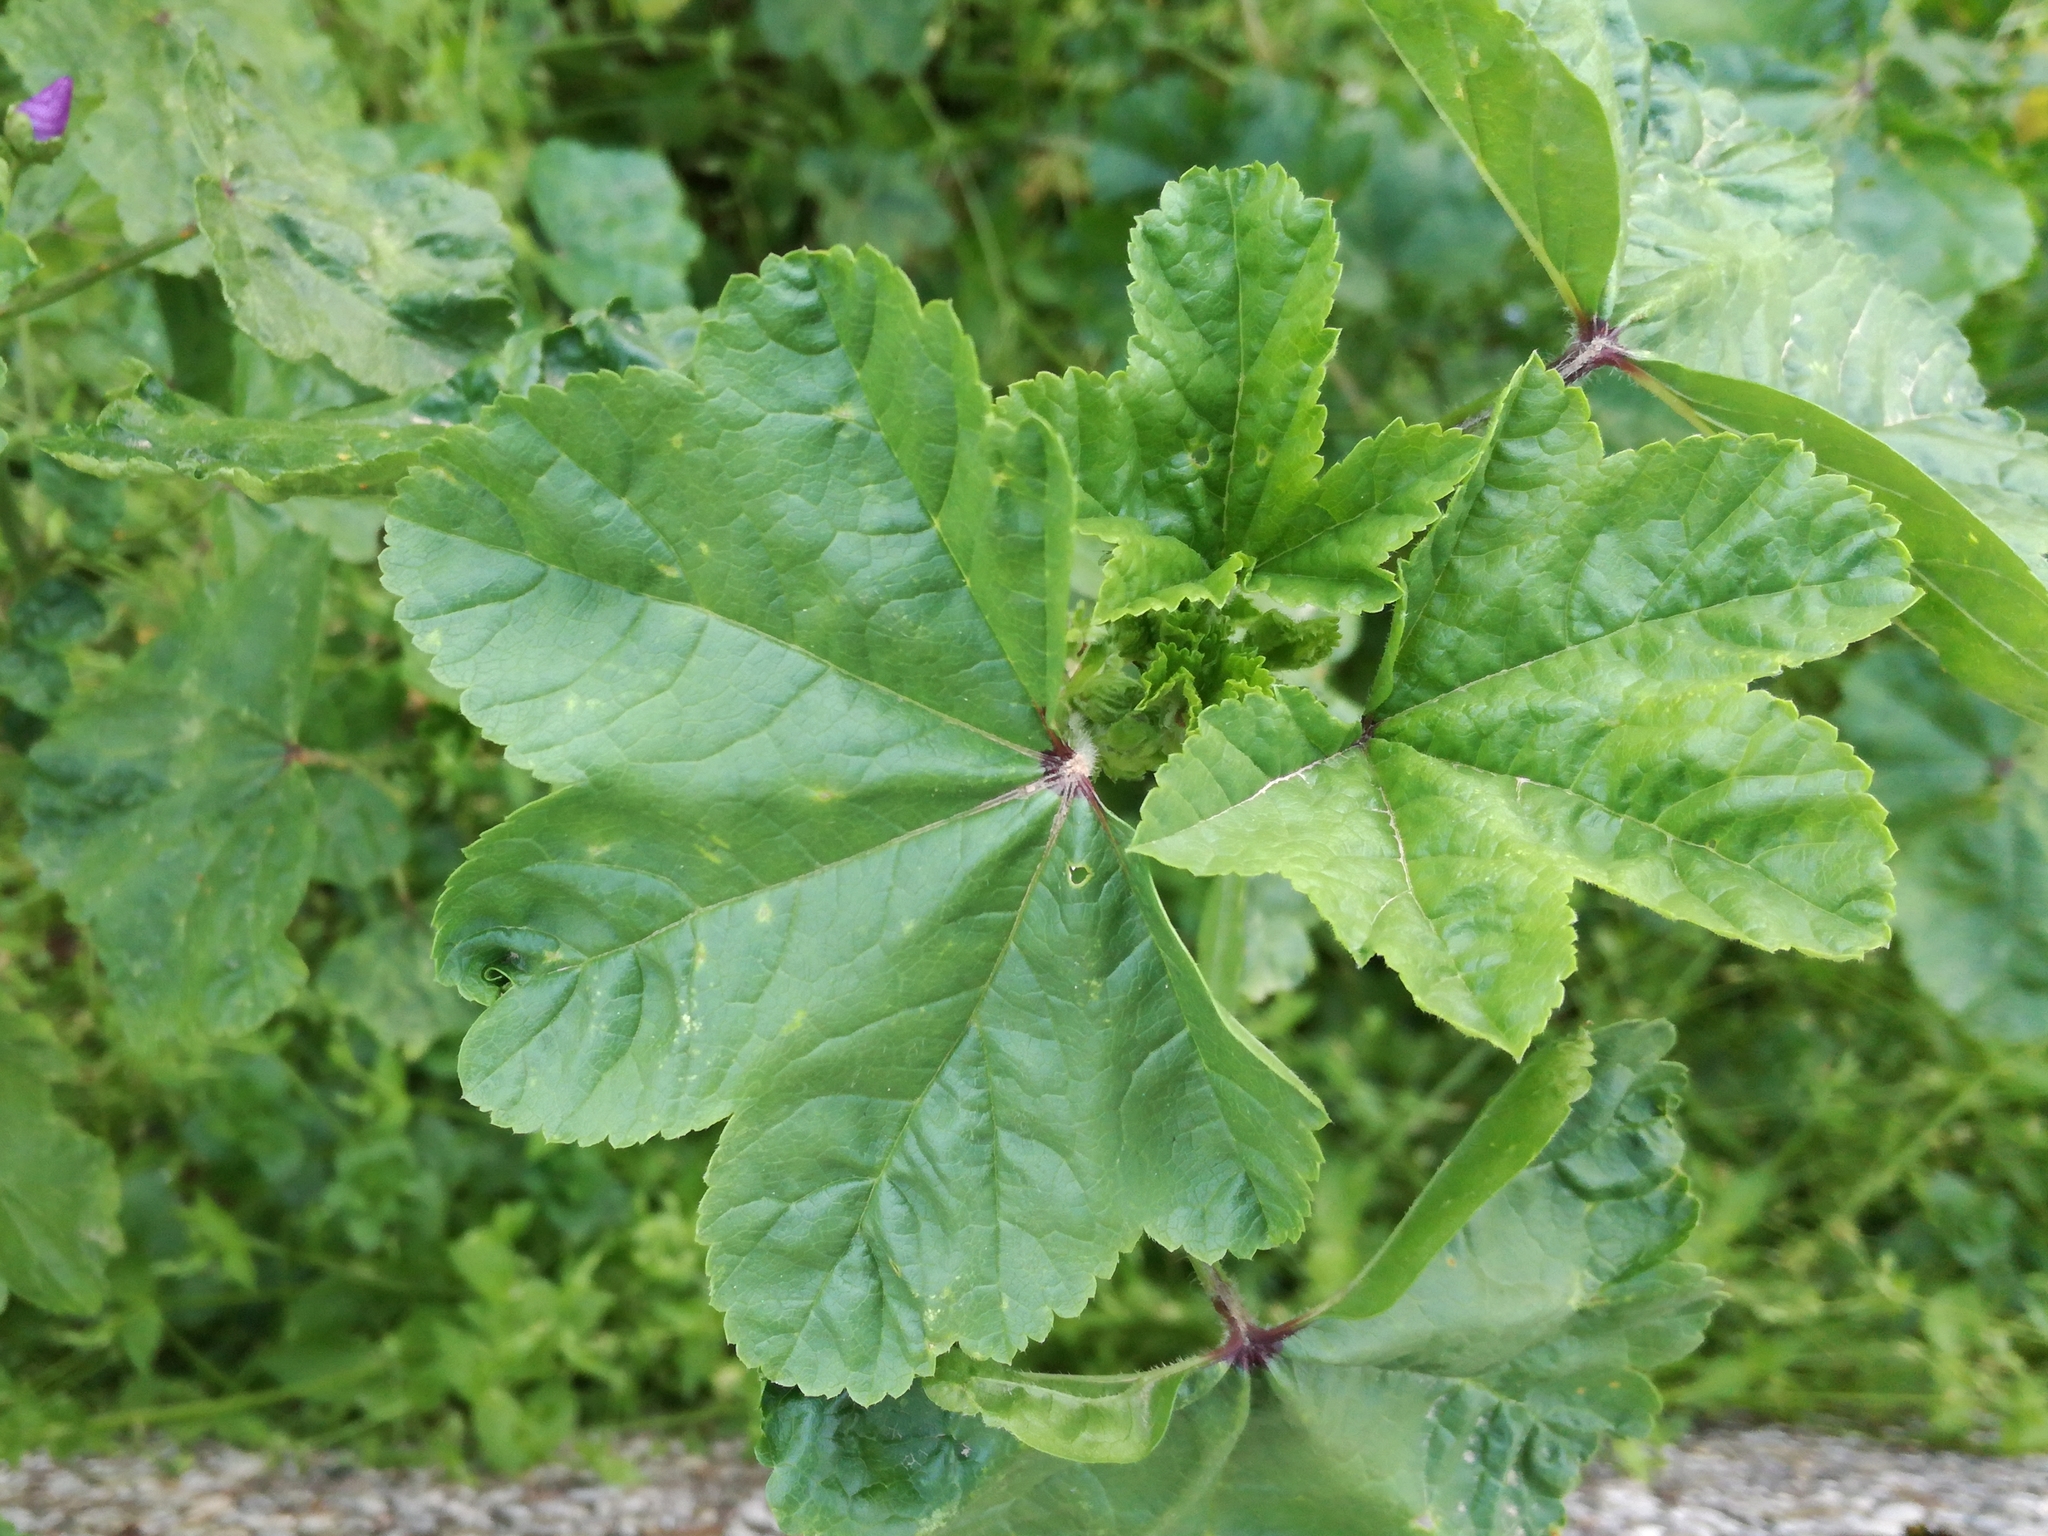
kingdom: Plantae
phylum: Tracheophyta
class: Magnoliopsida
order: Malvales
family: Malvaceae
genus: Malva
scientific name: Malva sylvestris
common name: Common mallow
